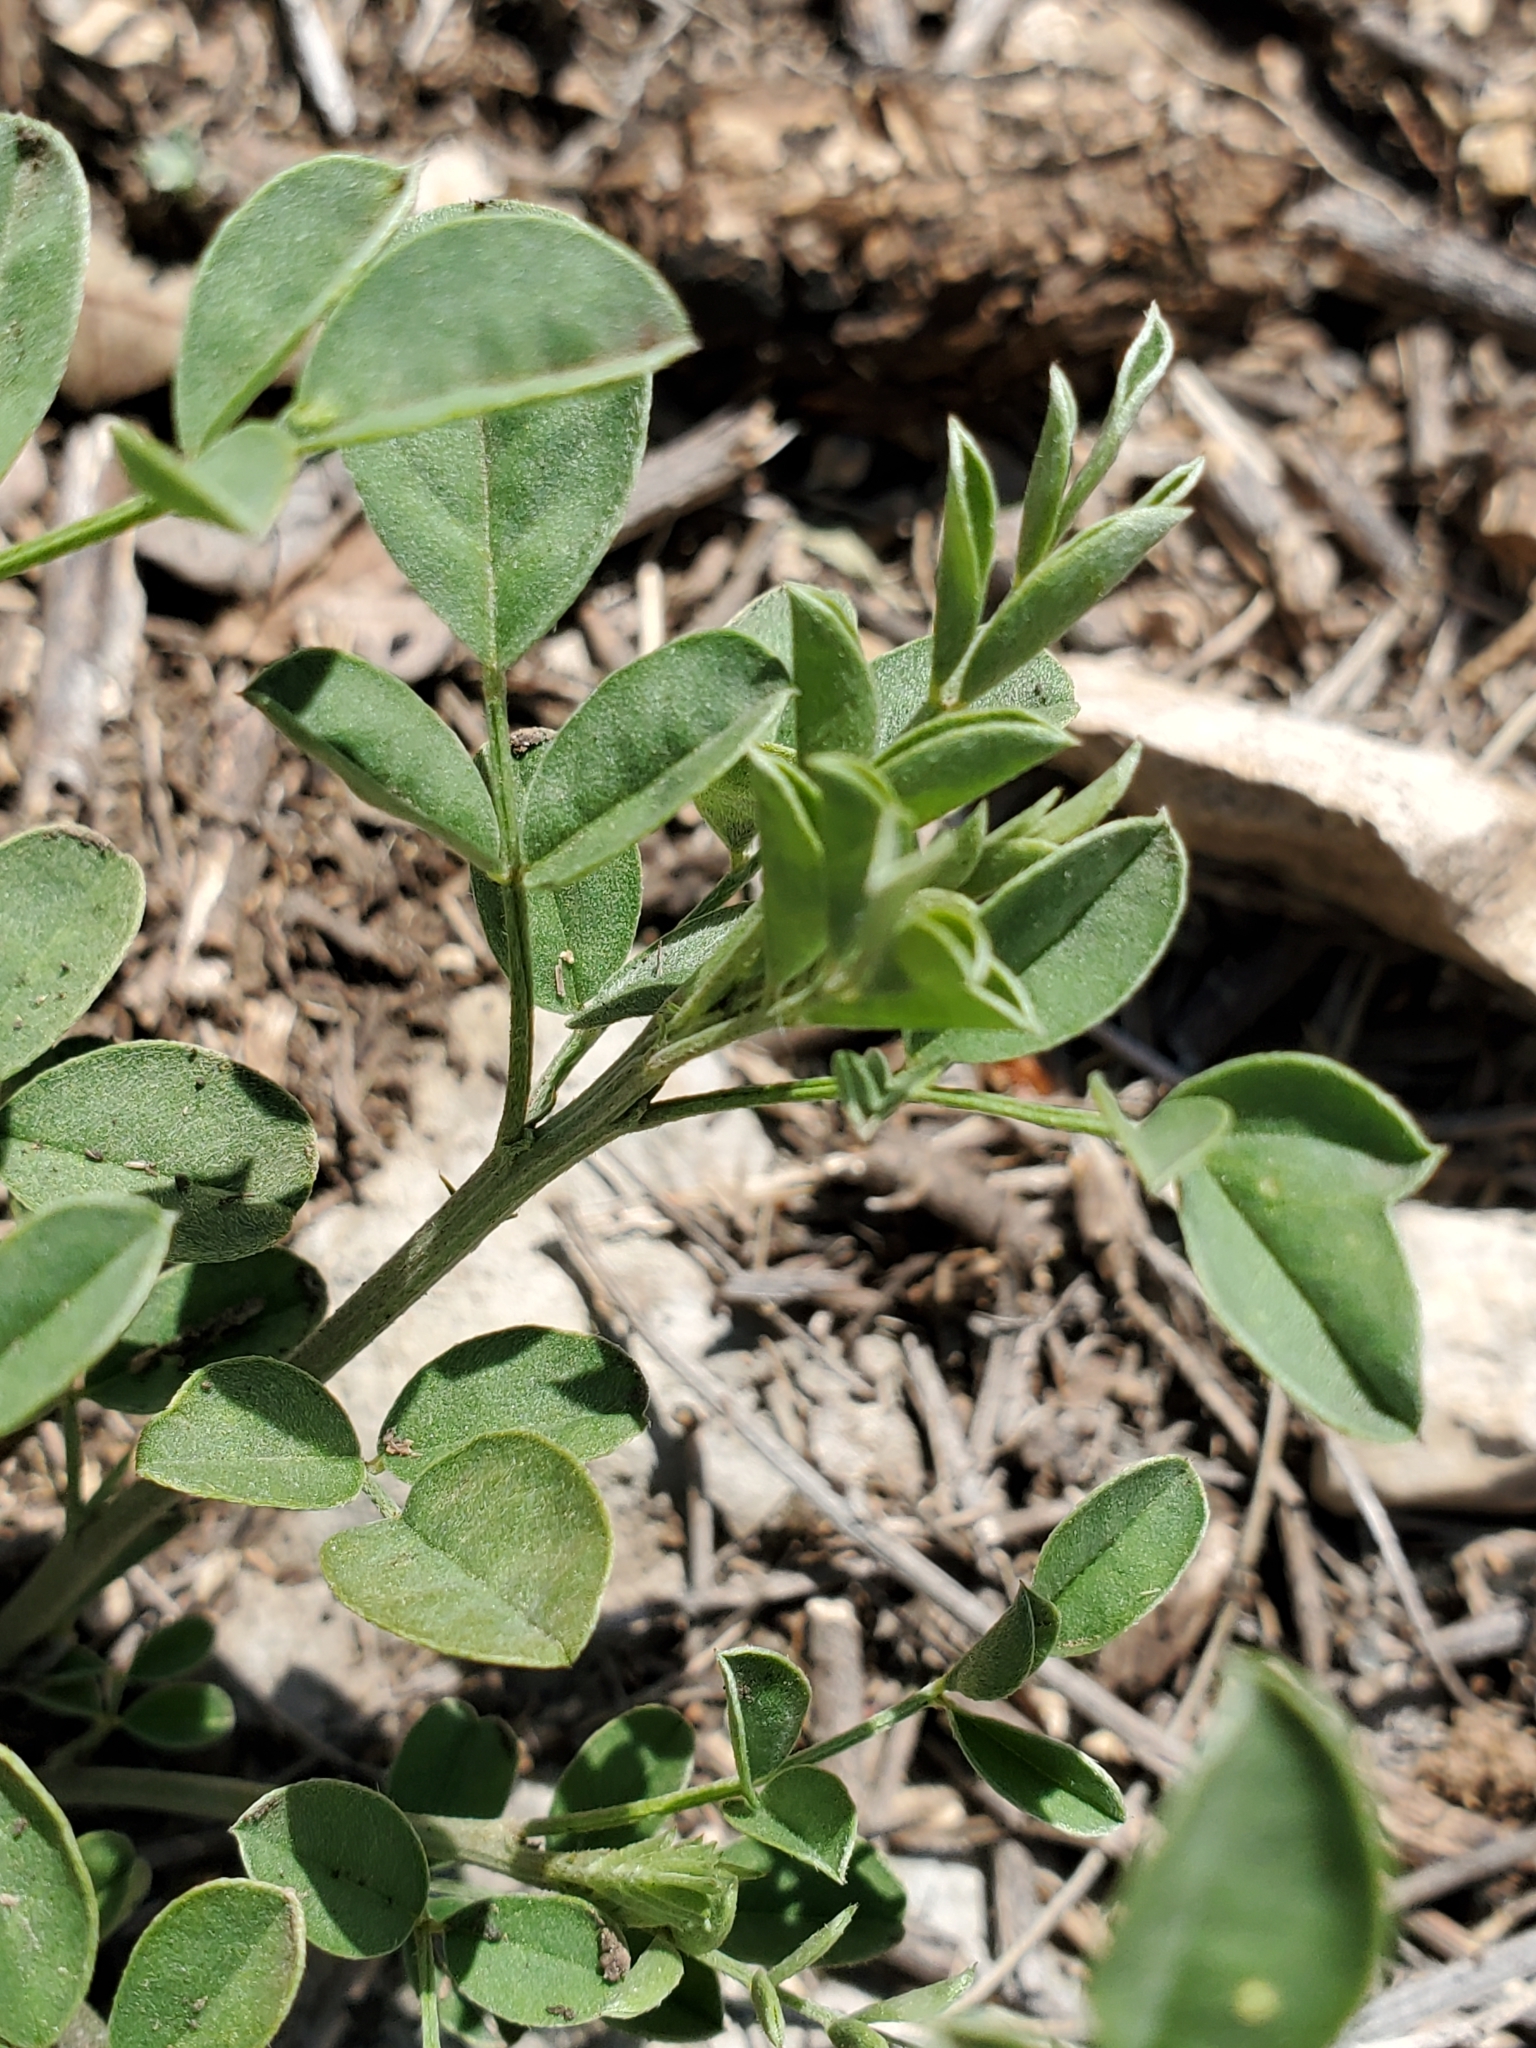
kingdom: Plantae
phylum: Tracheophyta
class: Magnoliopsida
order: Fabales
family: Fabaceae
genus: Indigofera
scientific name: Indigofera lindheimeriana
